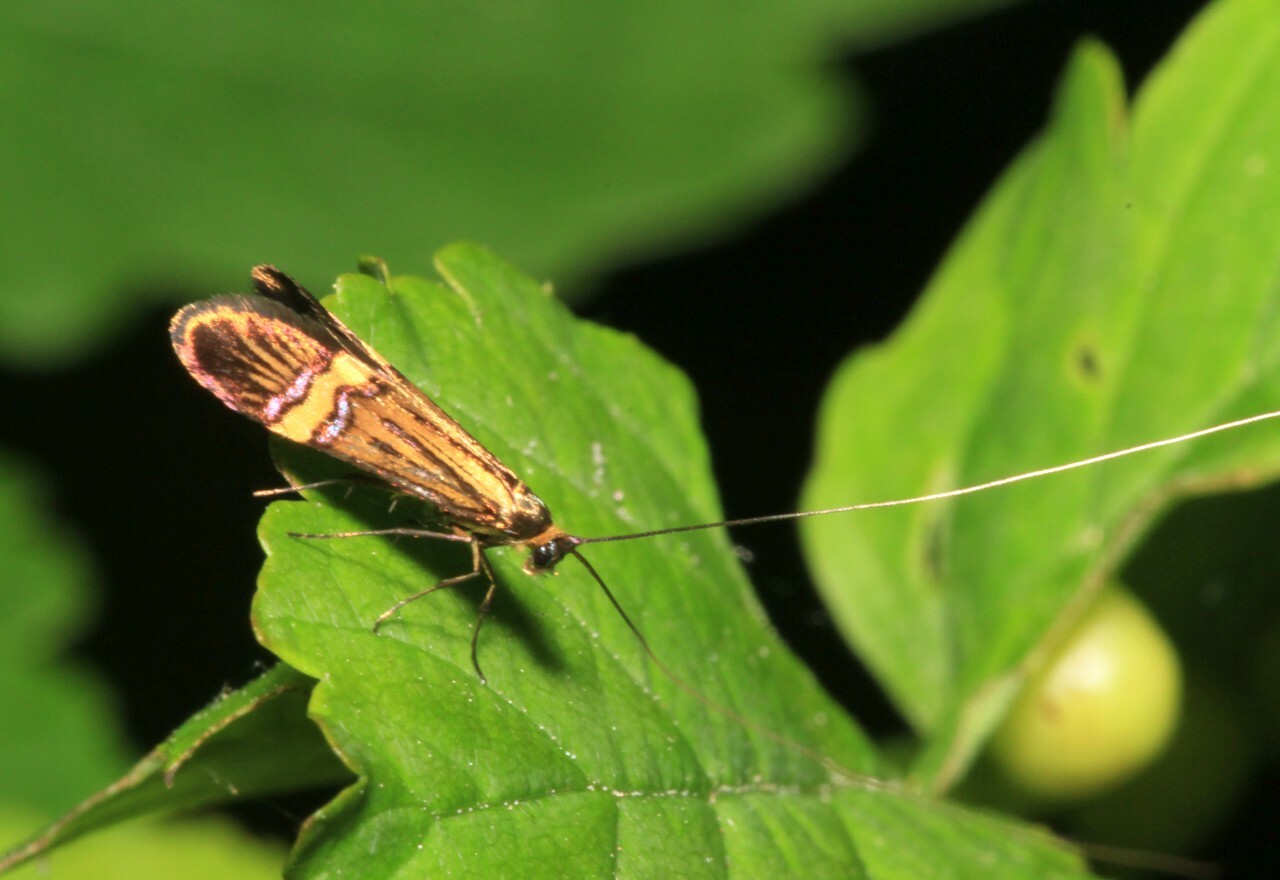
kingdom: Animalia
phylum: Arthropoda
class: Insecta
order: Lepidoptera
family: Adelidae
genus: Nemophora
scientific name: Nemophora
